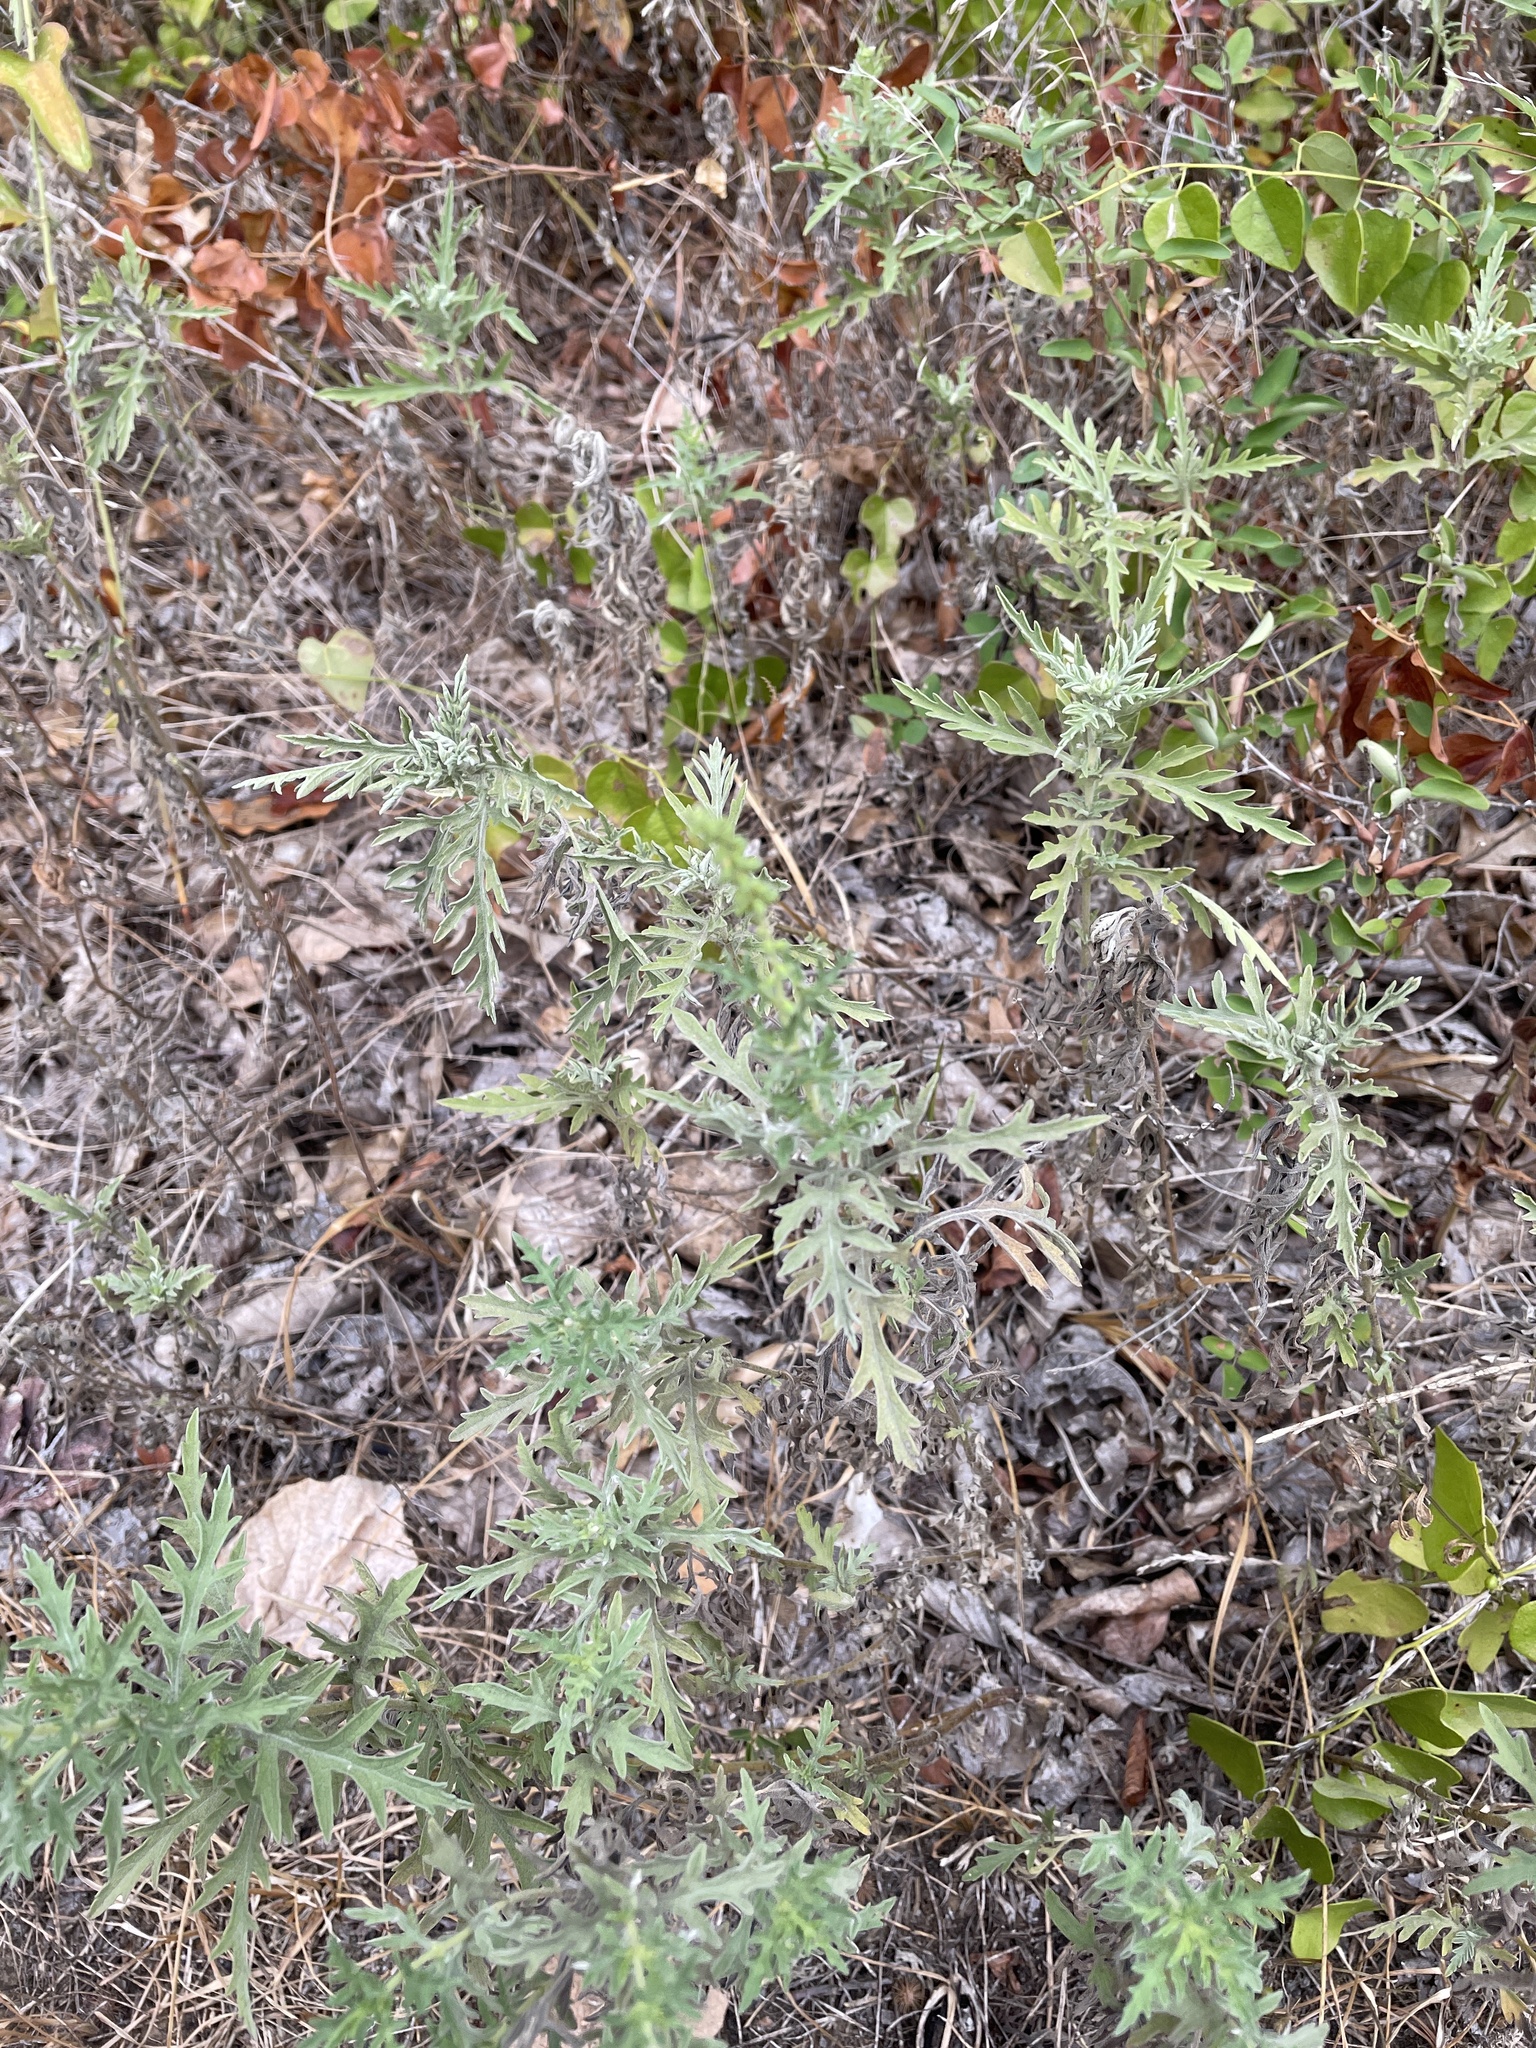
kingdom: Plantae
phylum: Tracheophyta
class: Magnoliopsida
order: Asterales
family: Asteraceae
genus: Ambrosia
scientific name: Ambrosia psilostachya
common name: Perennial ragweed
